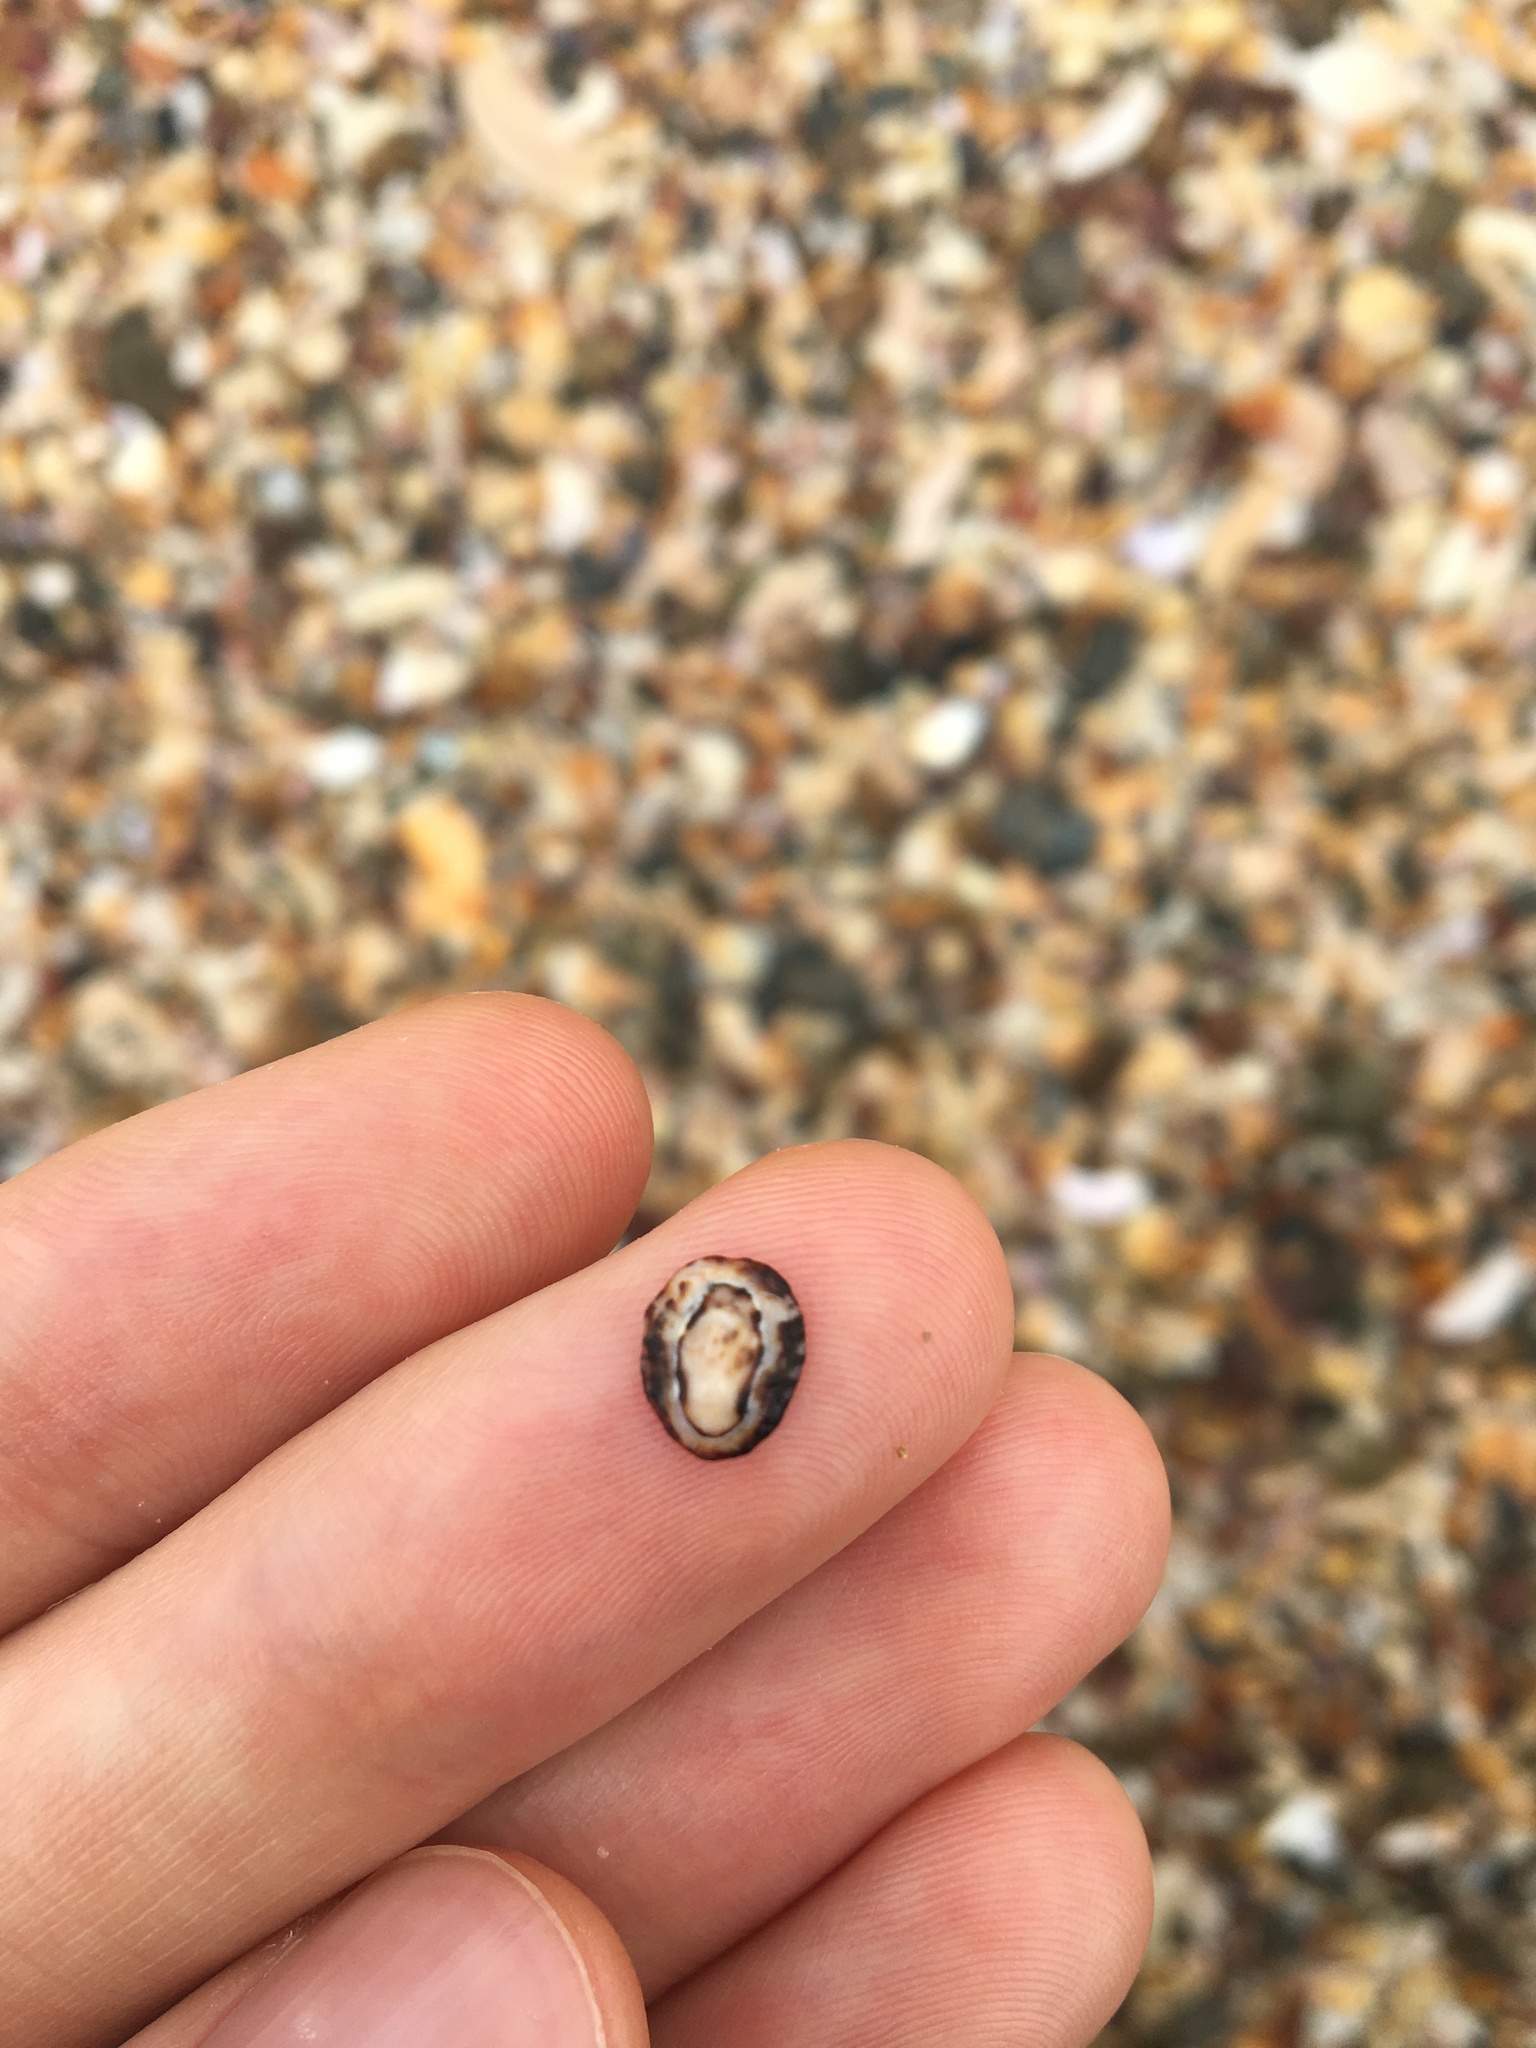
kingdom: Animalia
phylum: Mollusca
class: Gastropoda
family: Lottiidae
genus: Patelloida
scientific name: Patelloida latistrigata
